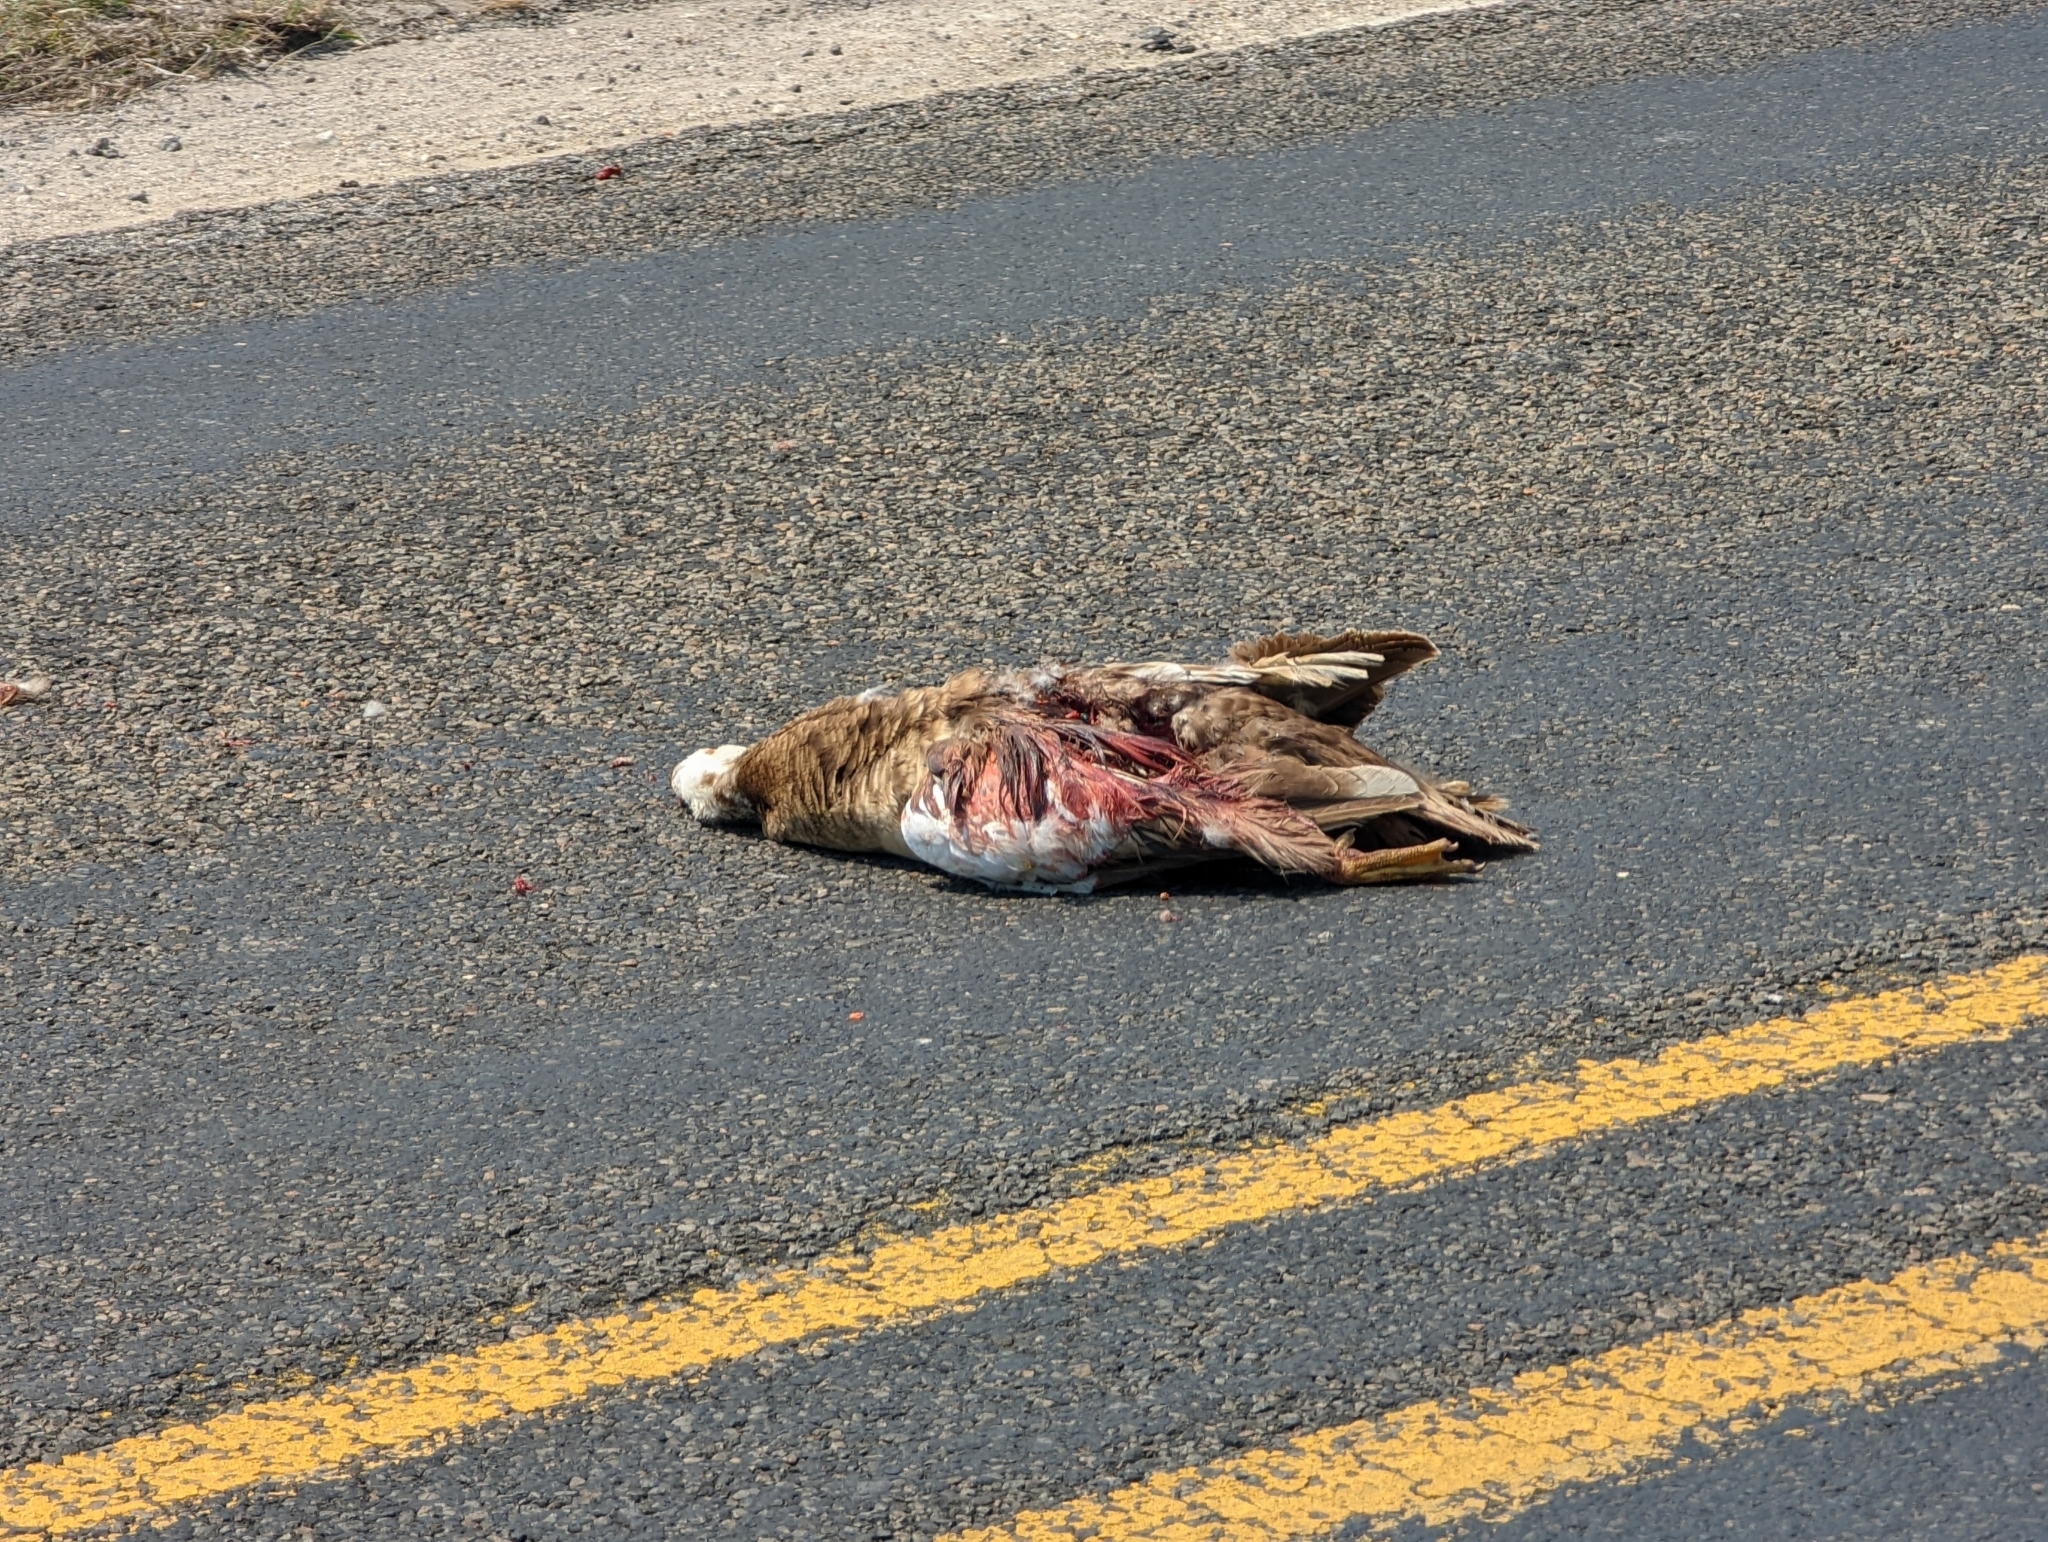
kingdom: Animalia
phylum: Chordata
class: Aves
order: Anseriformes
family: Anatidae
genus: Cairina
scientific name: Cairina moschata
